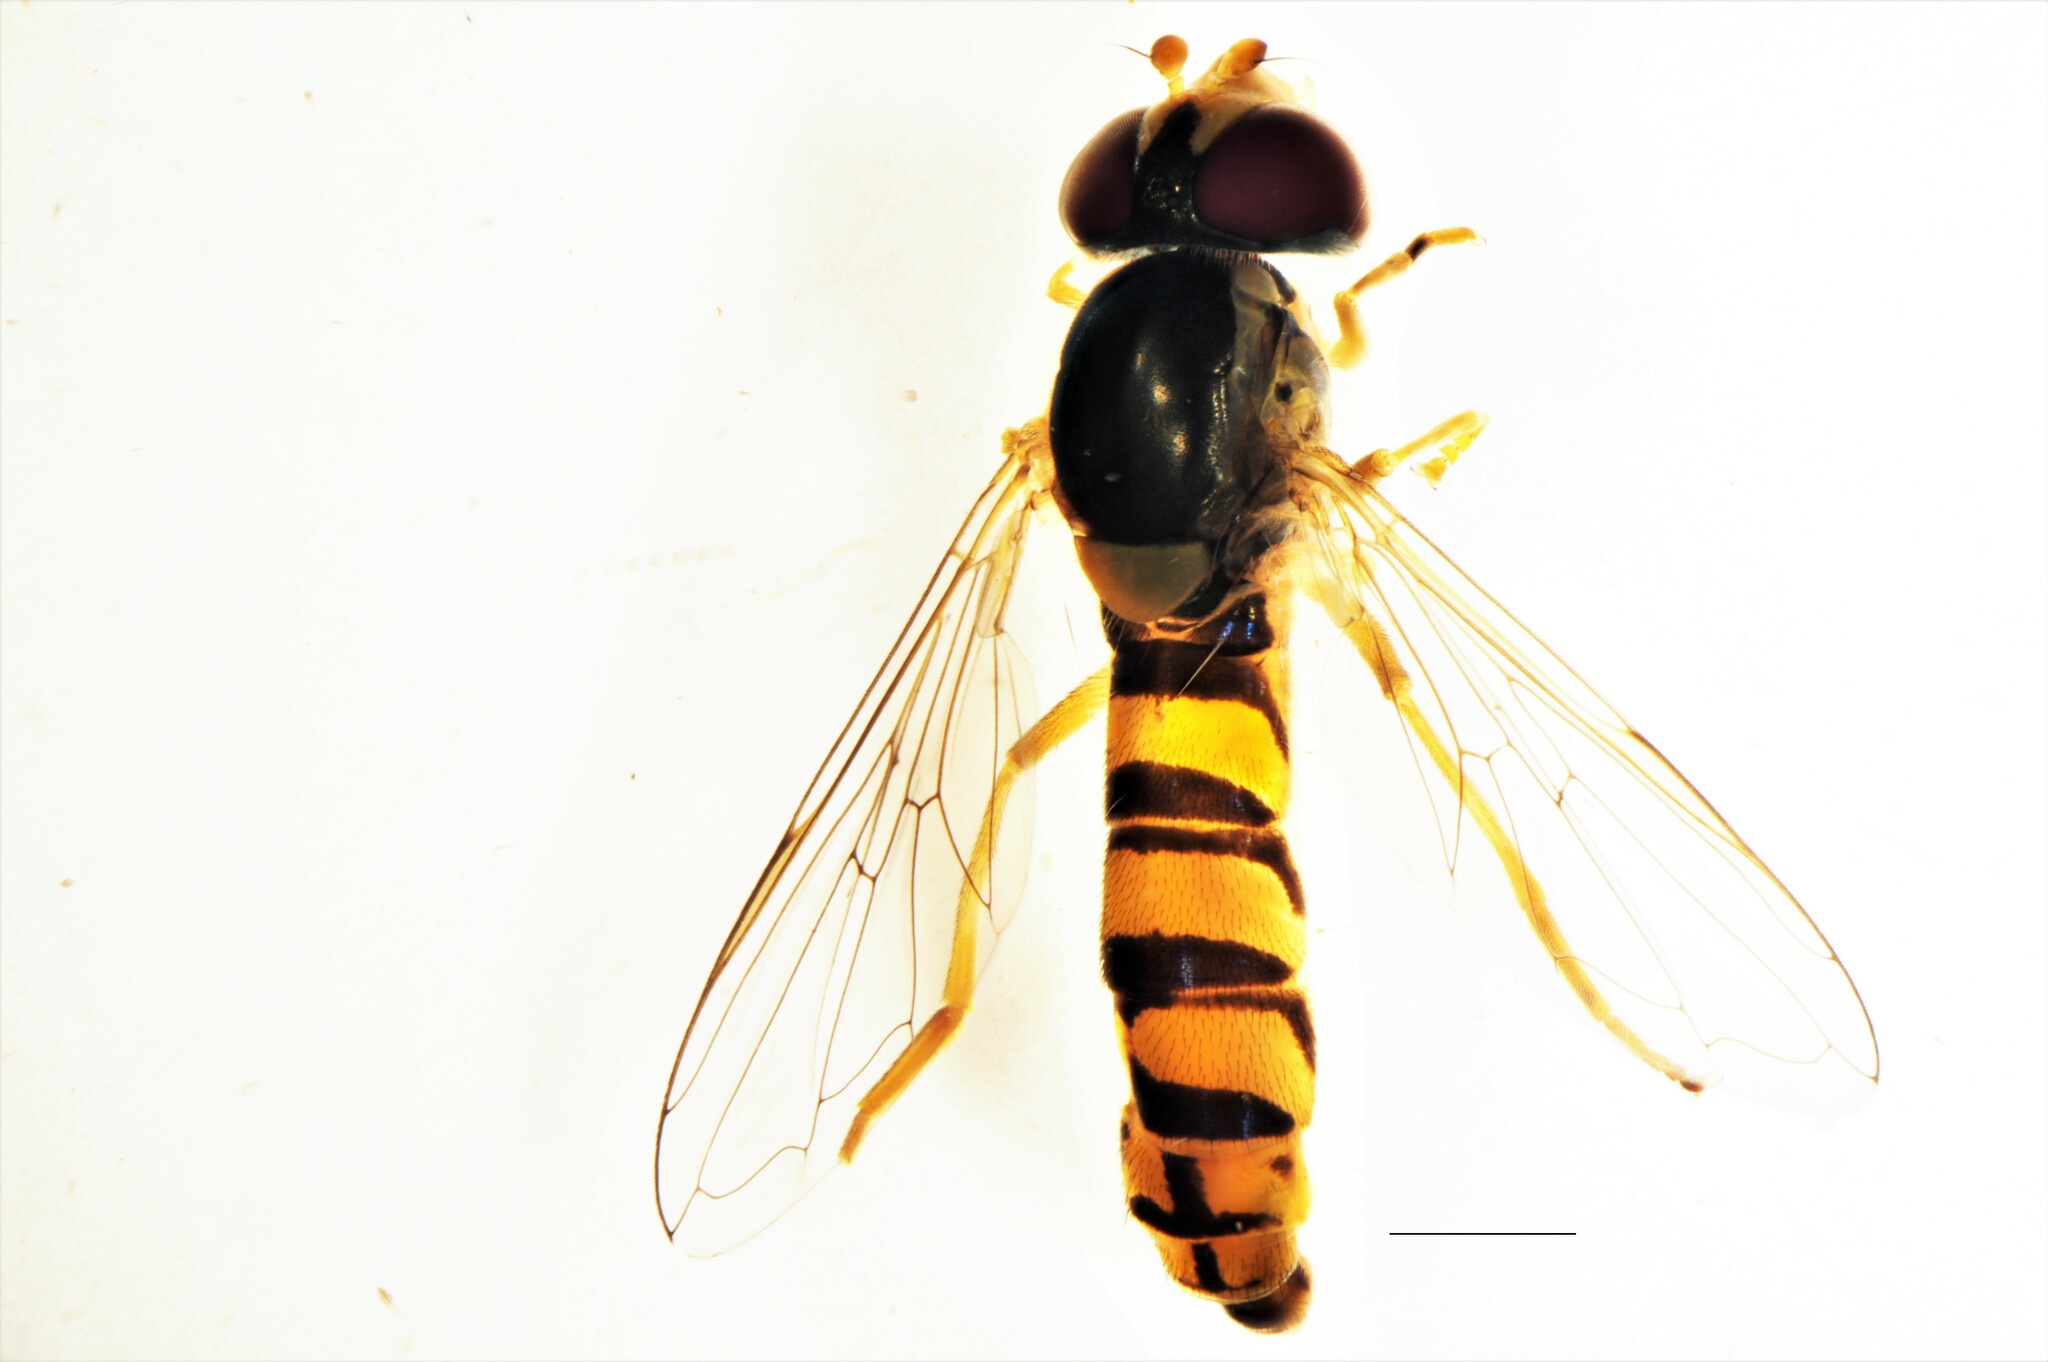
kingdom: Animalia
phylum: Arthropoda
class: Insecta
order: Diptera
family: Syrphidae
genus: Sphaerophoria
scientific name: Sphaerophoria macrogaster
